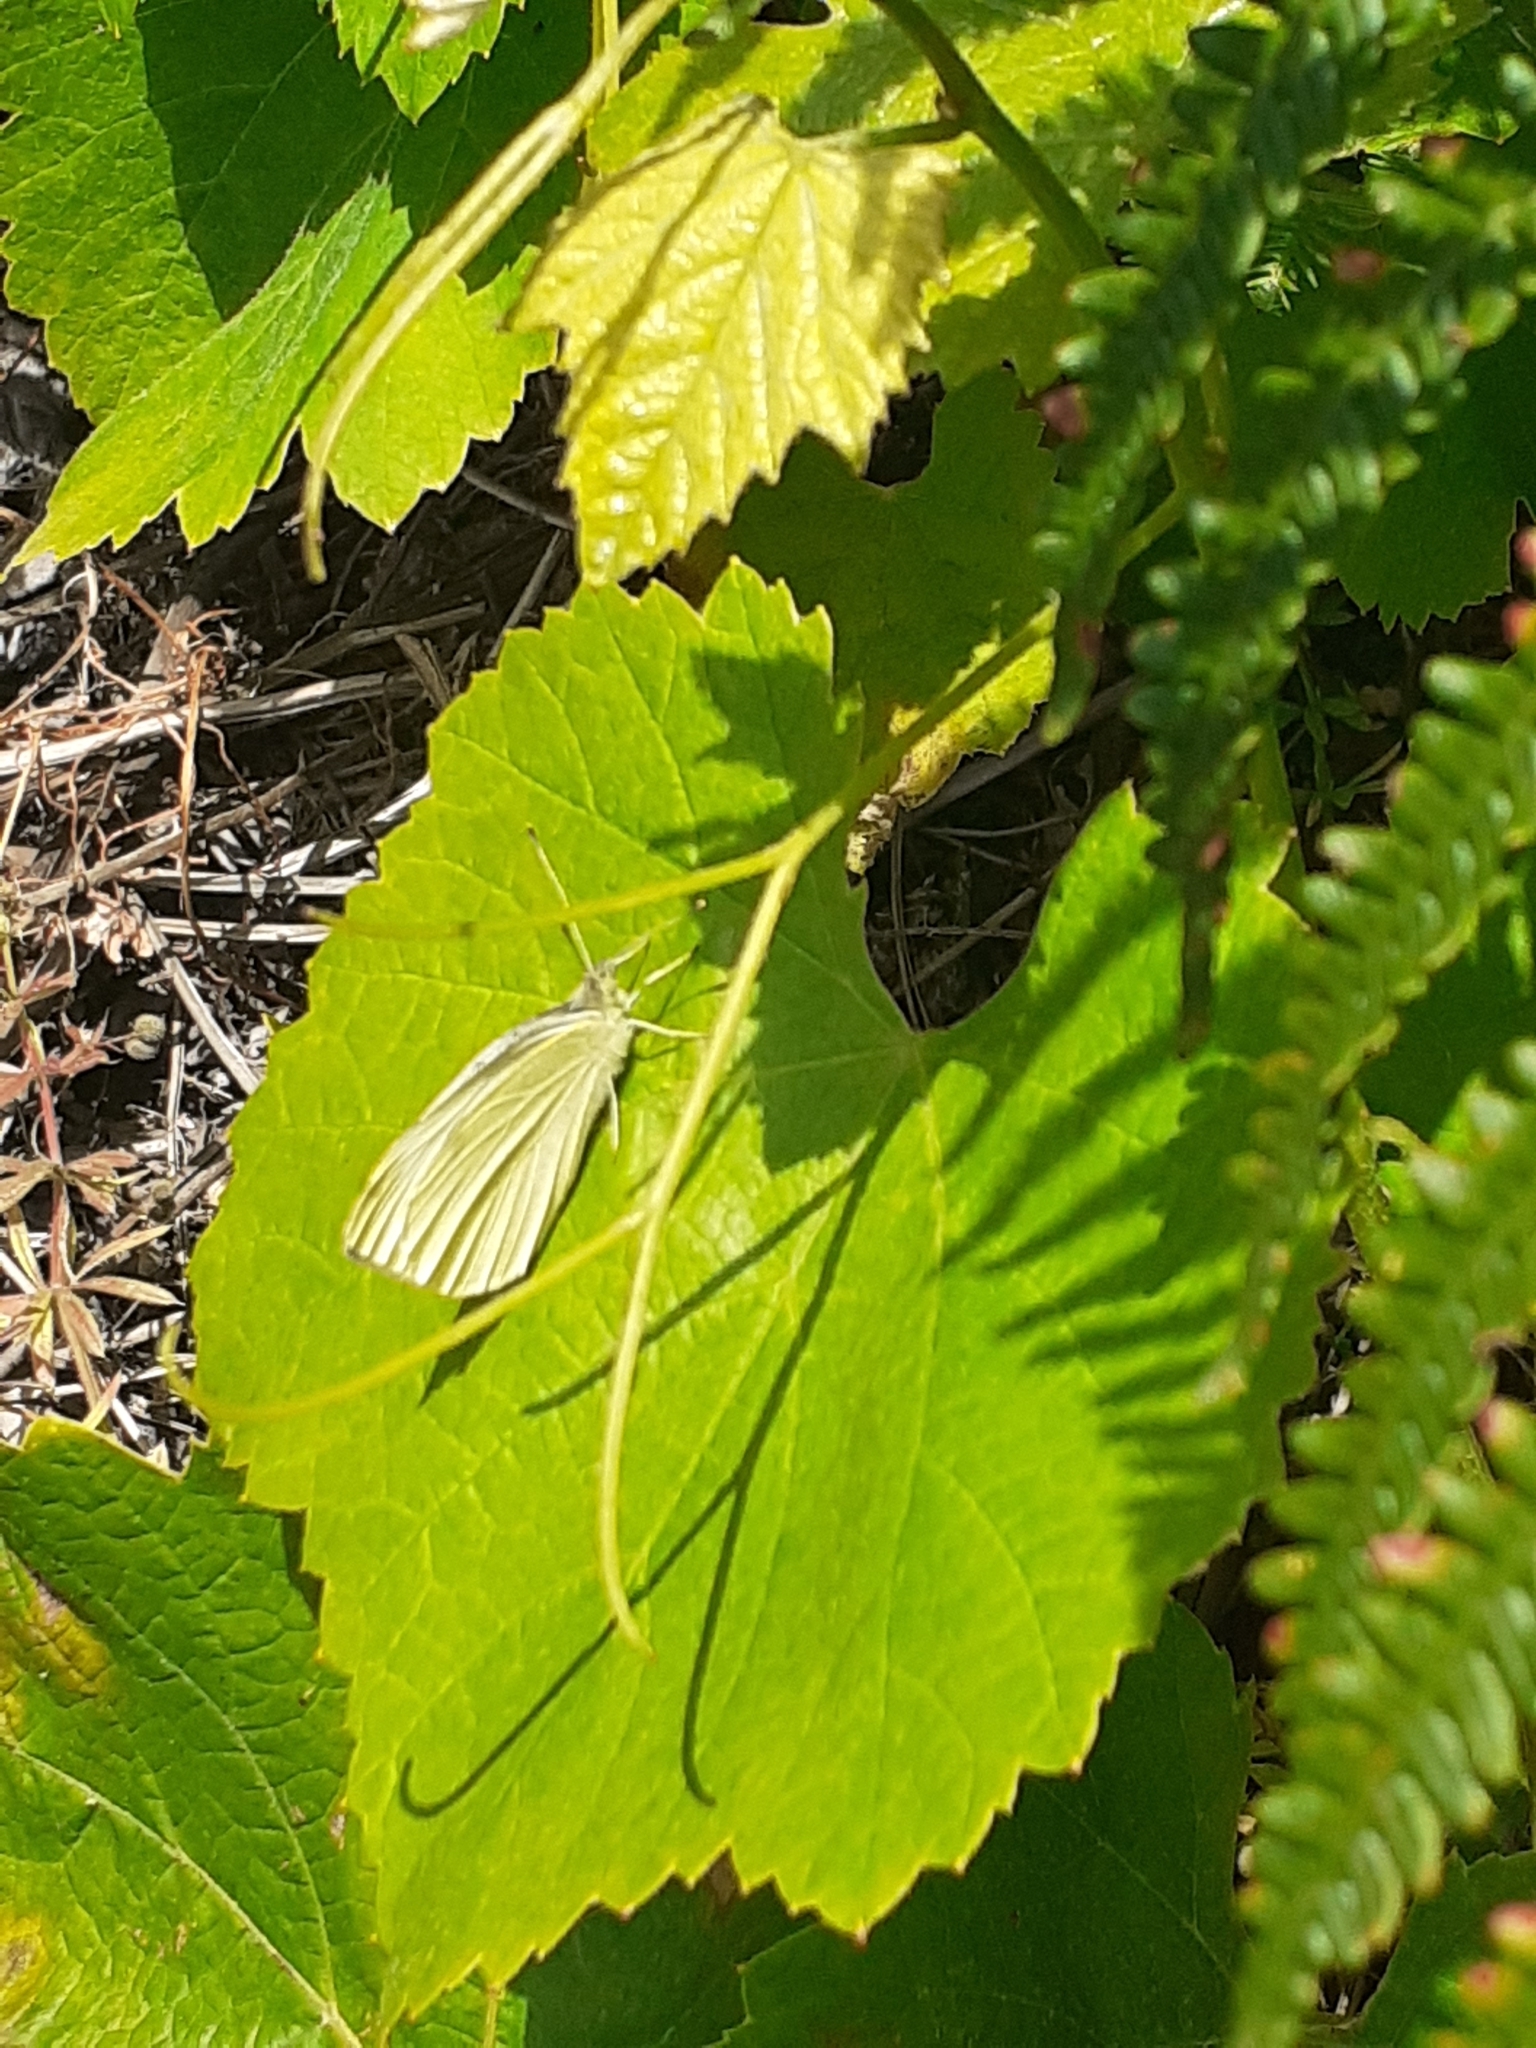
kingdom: Animalia
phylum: Arthropoda
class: Insecta
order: Lepidoptera
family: Pieridae
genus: Pieris
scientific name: Pieris rapae
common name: Small white
